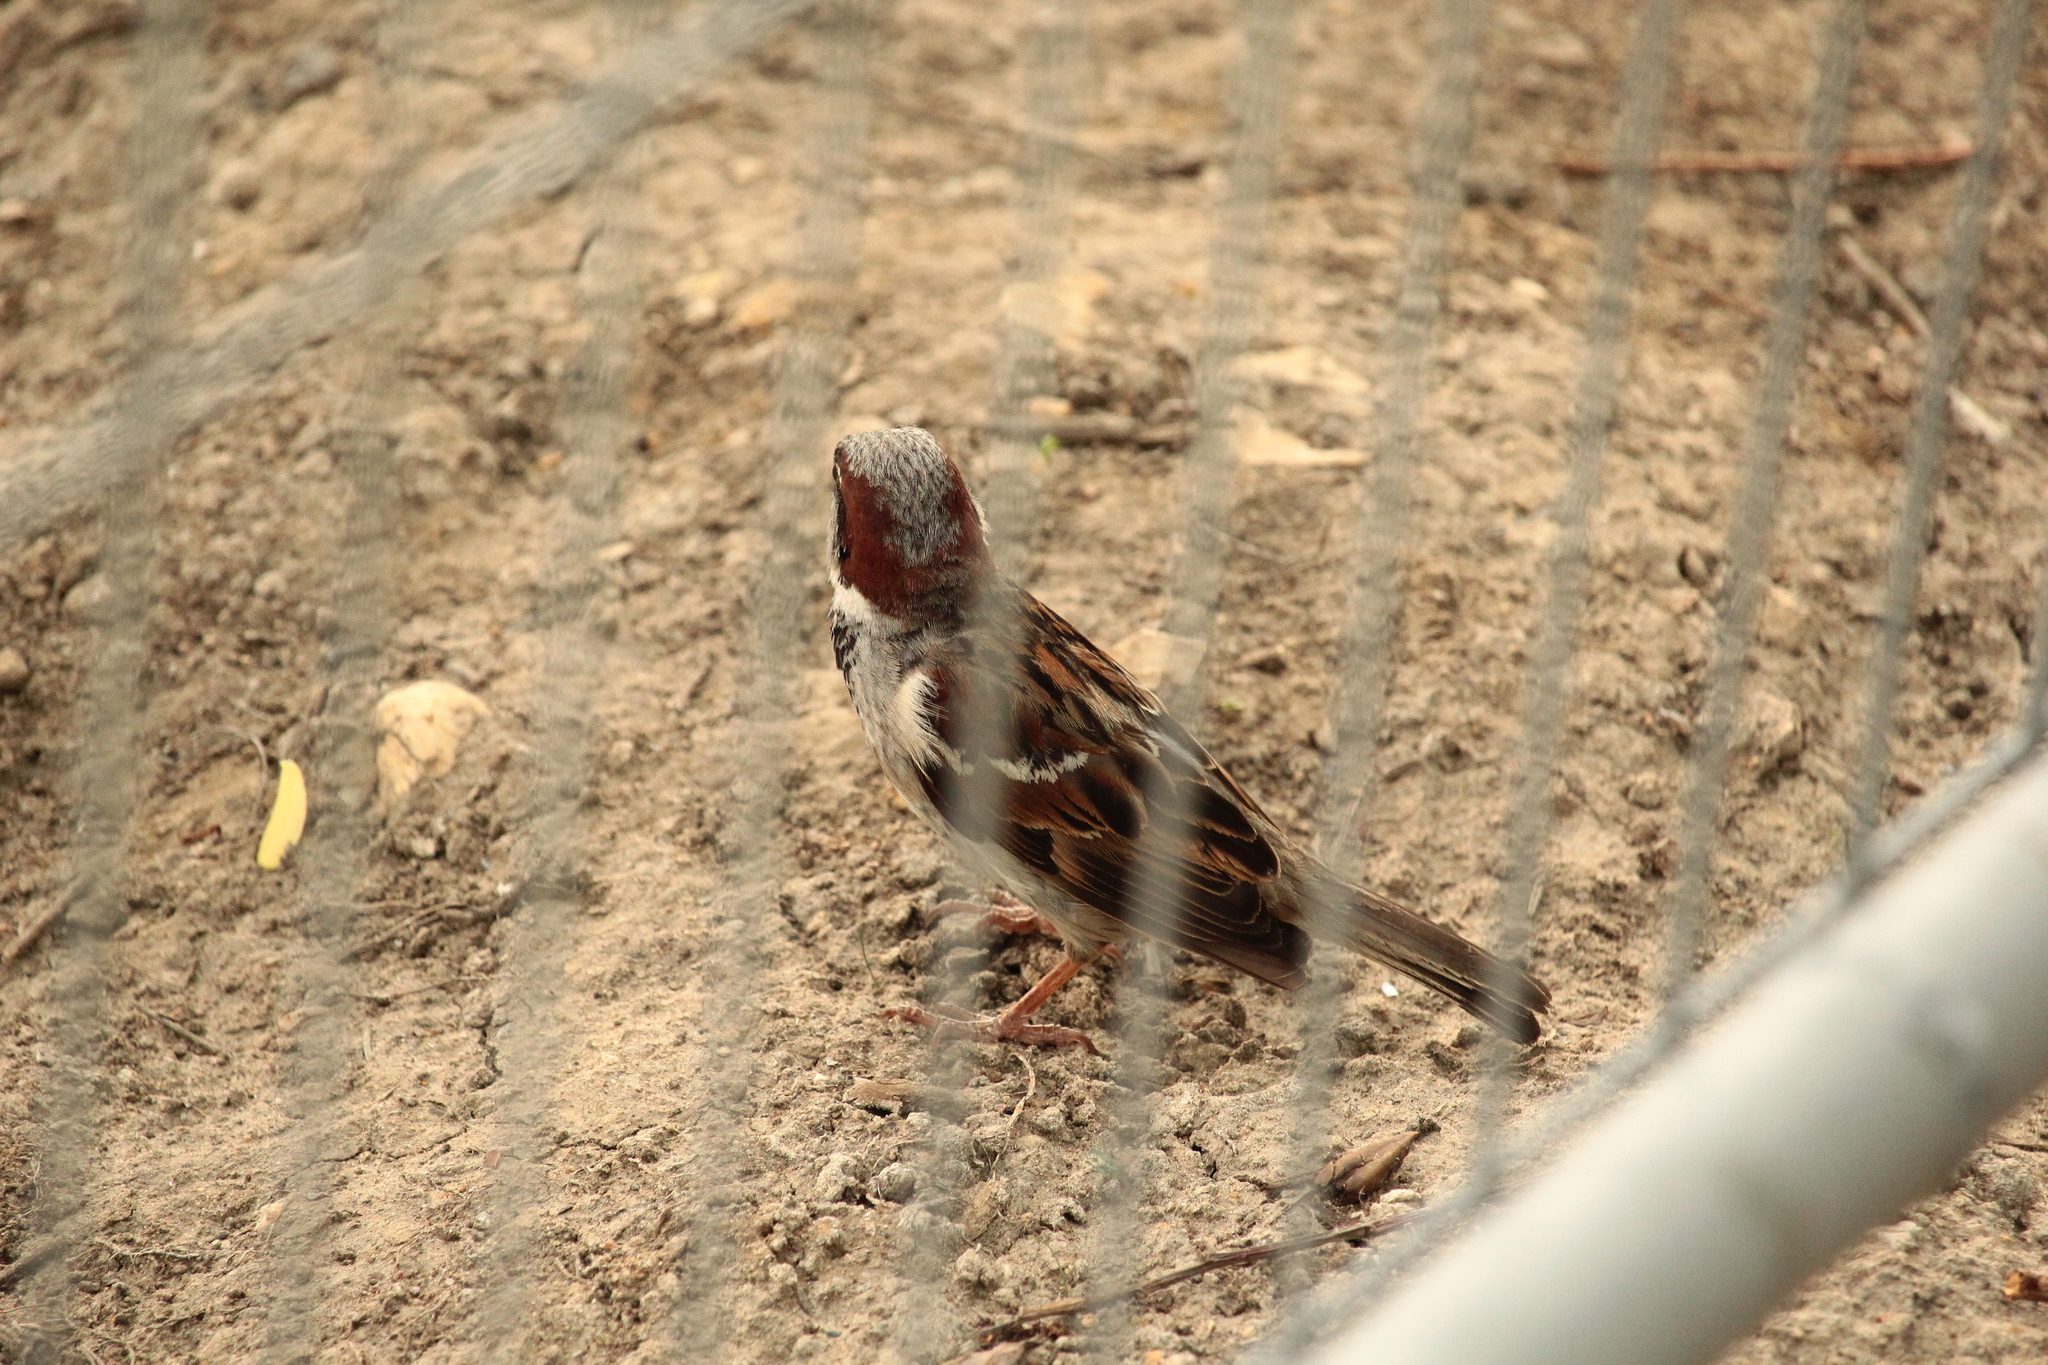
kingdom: Animalia
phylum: Chordata
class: Aves
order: Passeriformes
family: Passeridae
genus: Passer
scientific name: Passer domesticus
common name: House sparrow
